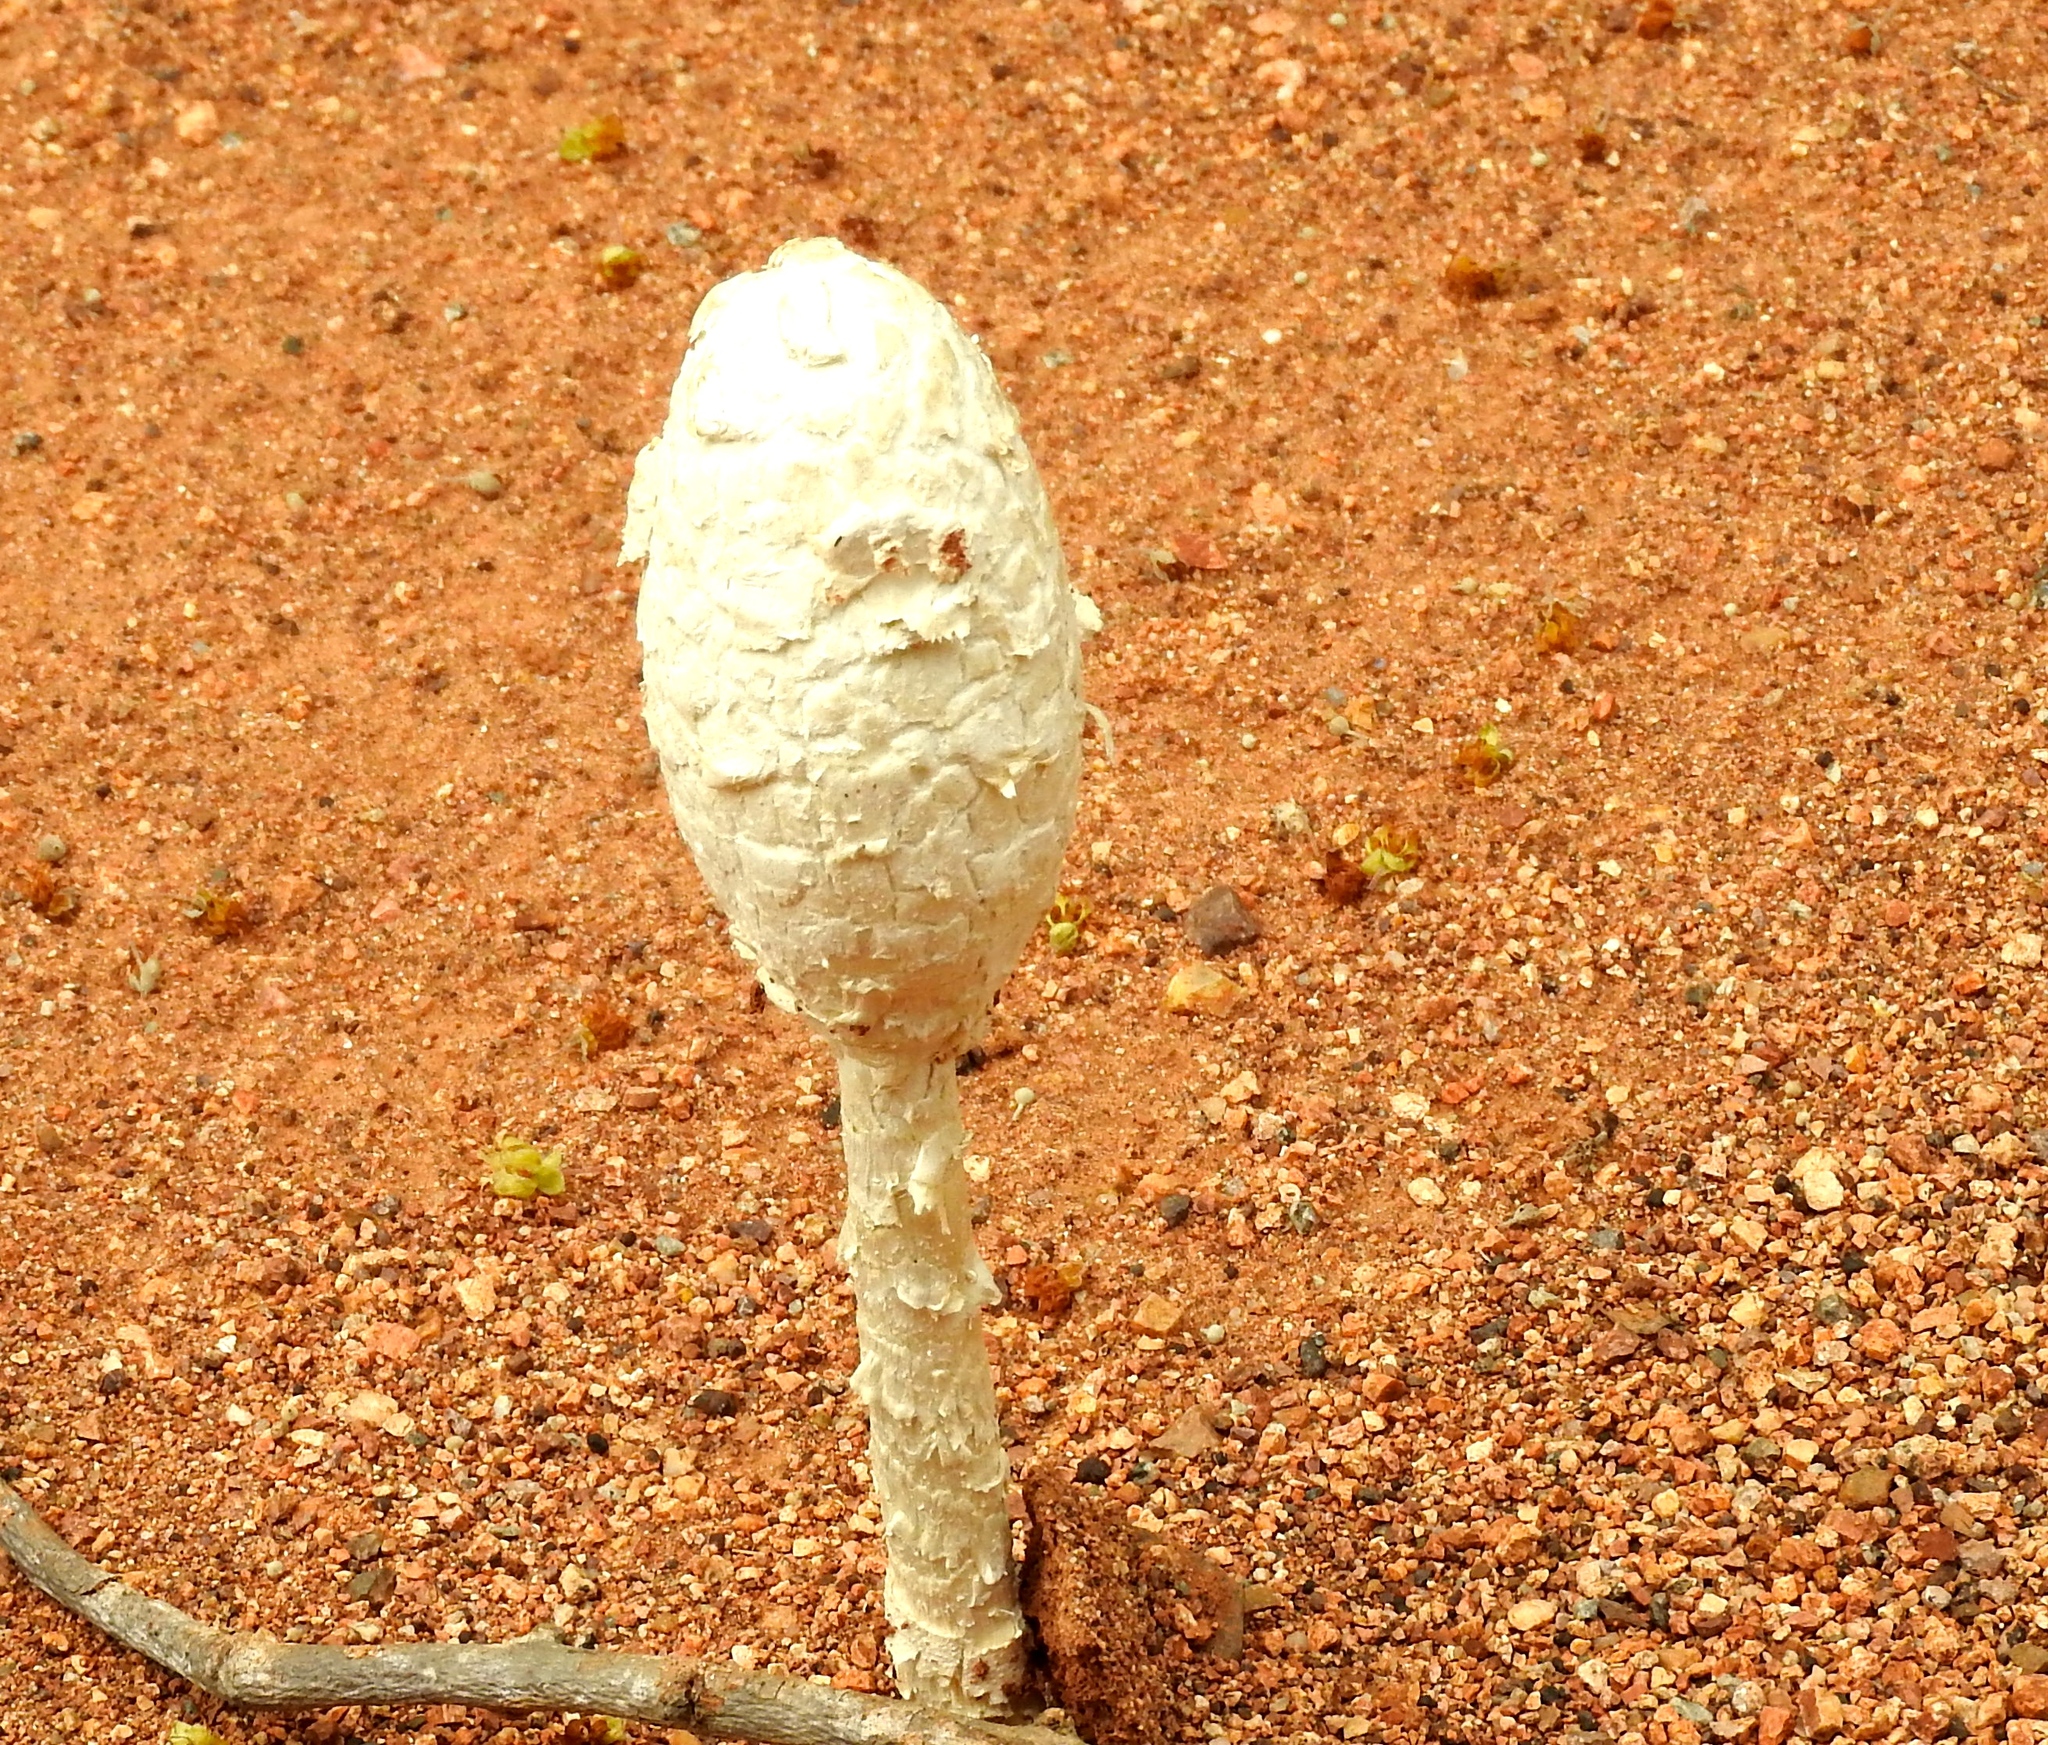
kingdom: Fungi
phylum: Basidiomycota
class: Agaricomycetes
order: Agaricales
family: Agaricaceae
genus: Podaxis
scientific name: Podaxis pistillaris
